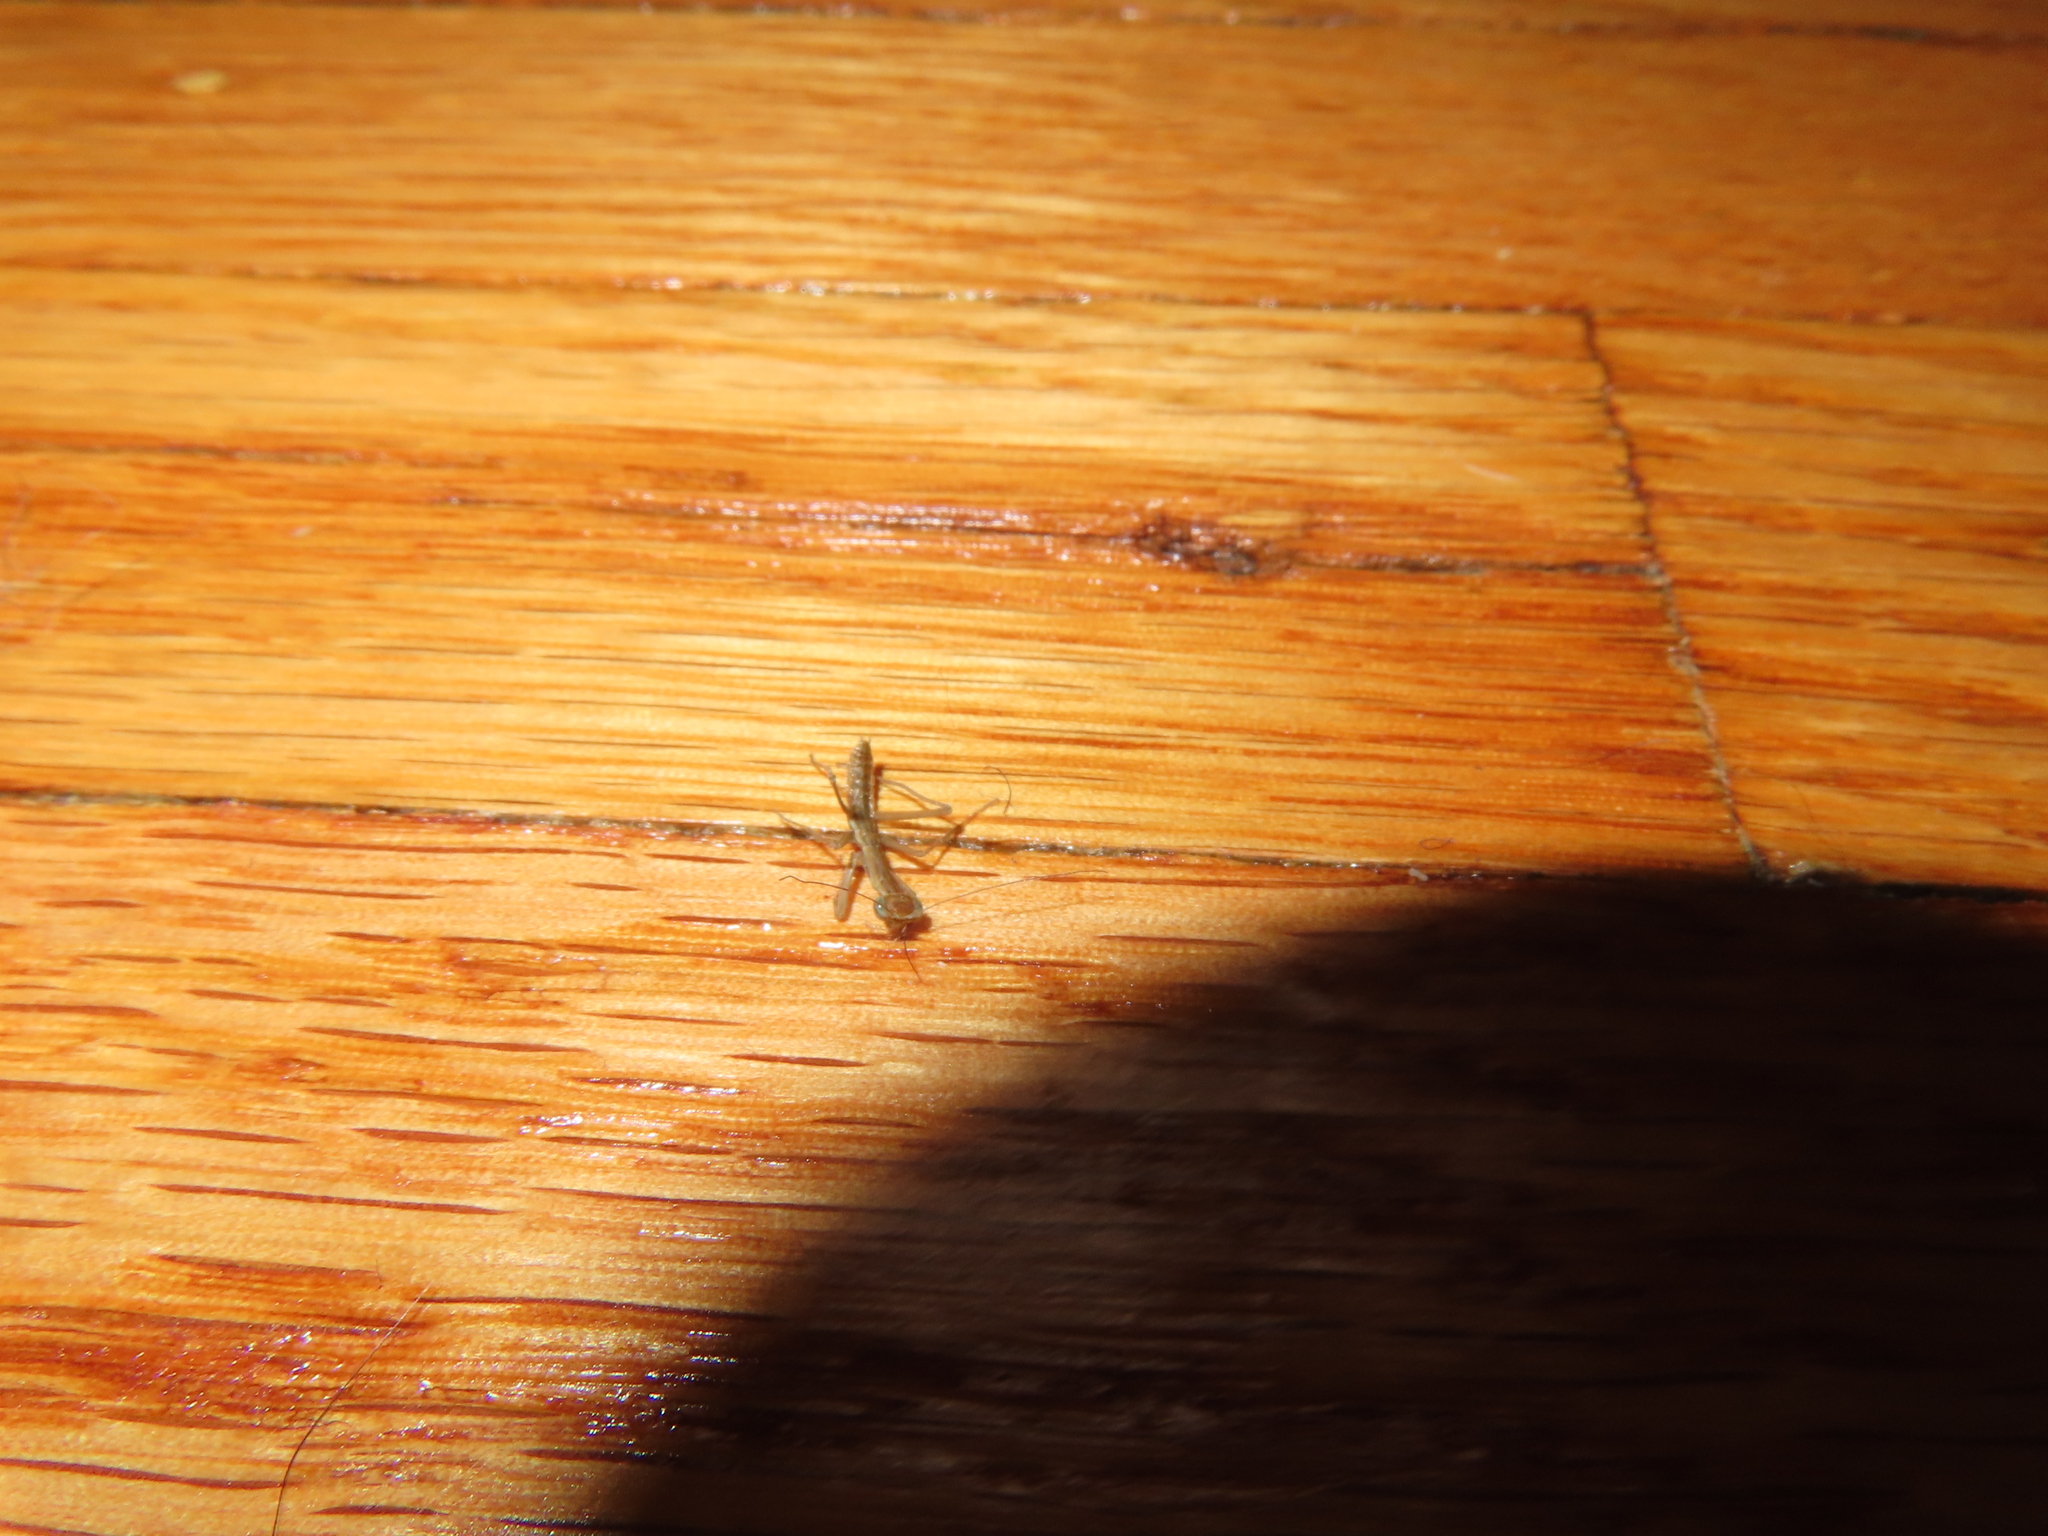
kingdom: Animalia
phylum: Arthropoda
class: Insecta
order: Mantodea
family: Mantidae
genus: Tenodera
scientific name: Tenodera sinensis
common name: Chinese mantis
